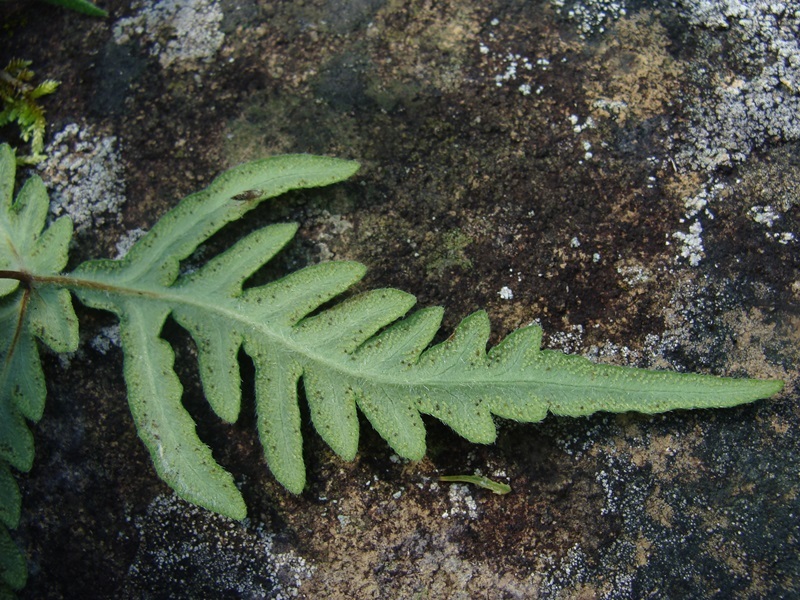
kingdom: Plantae
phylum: Tracheophyta
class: Polypodiopsida
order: Polypodiales
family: Pteridaceae
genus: Pityrogramma
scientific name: Pityrogramma calomelanos
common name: Dixie silverback fern
